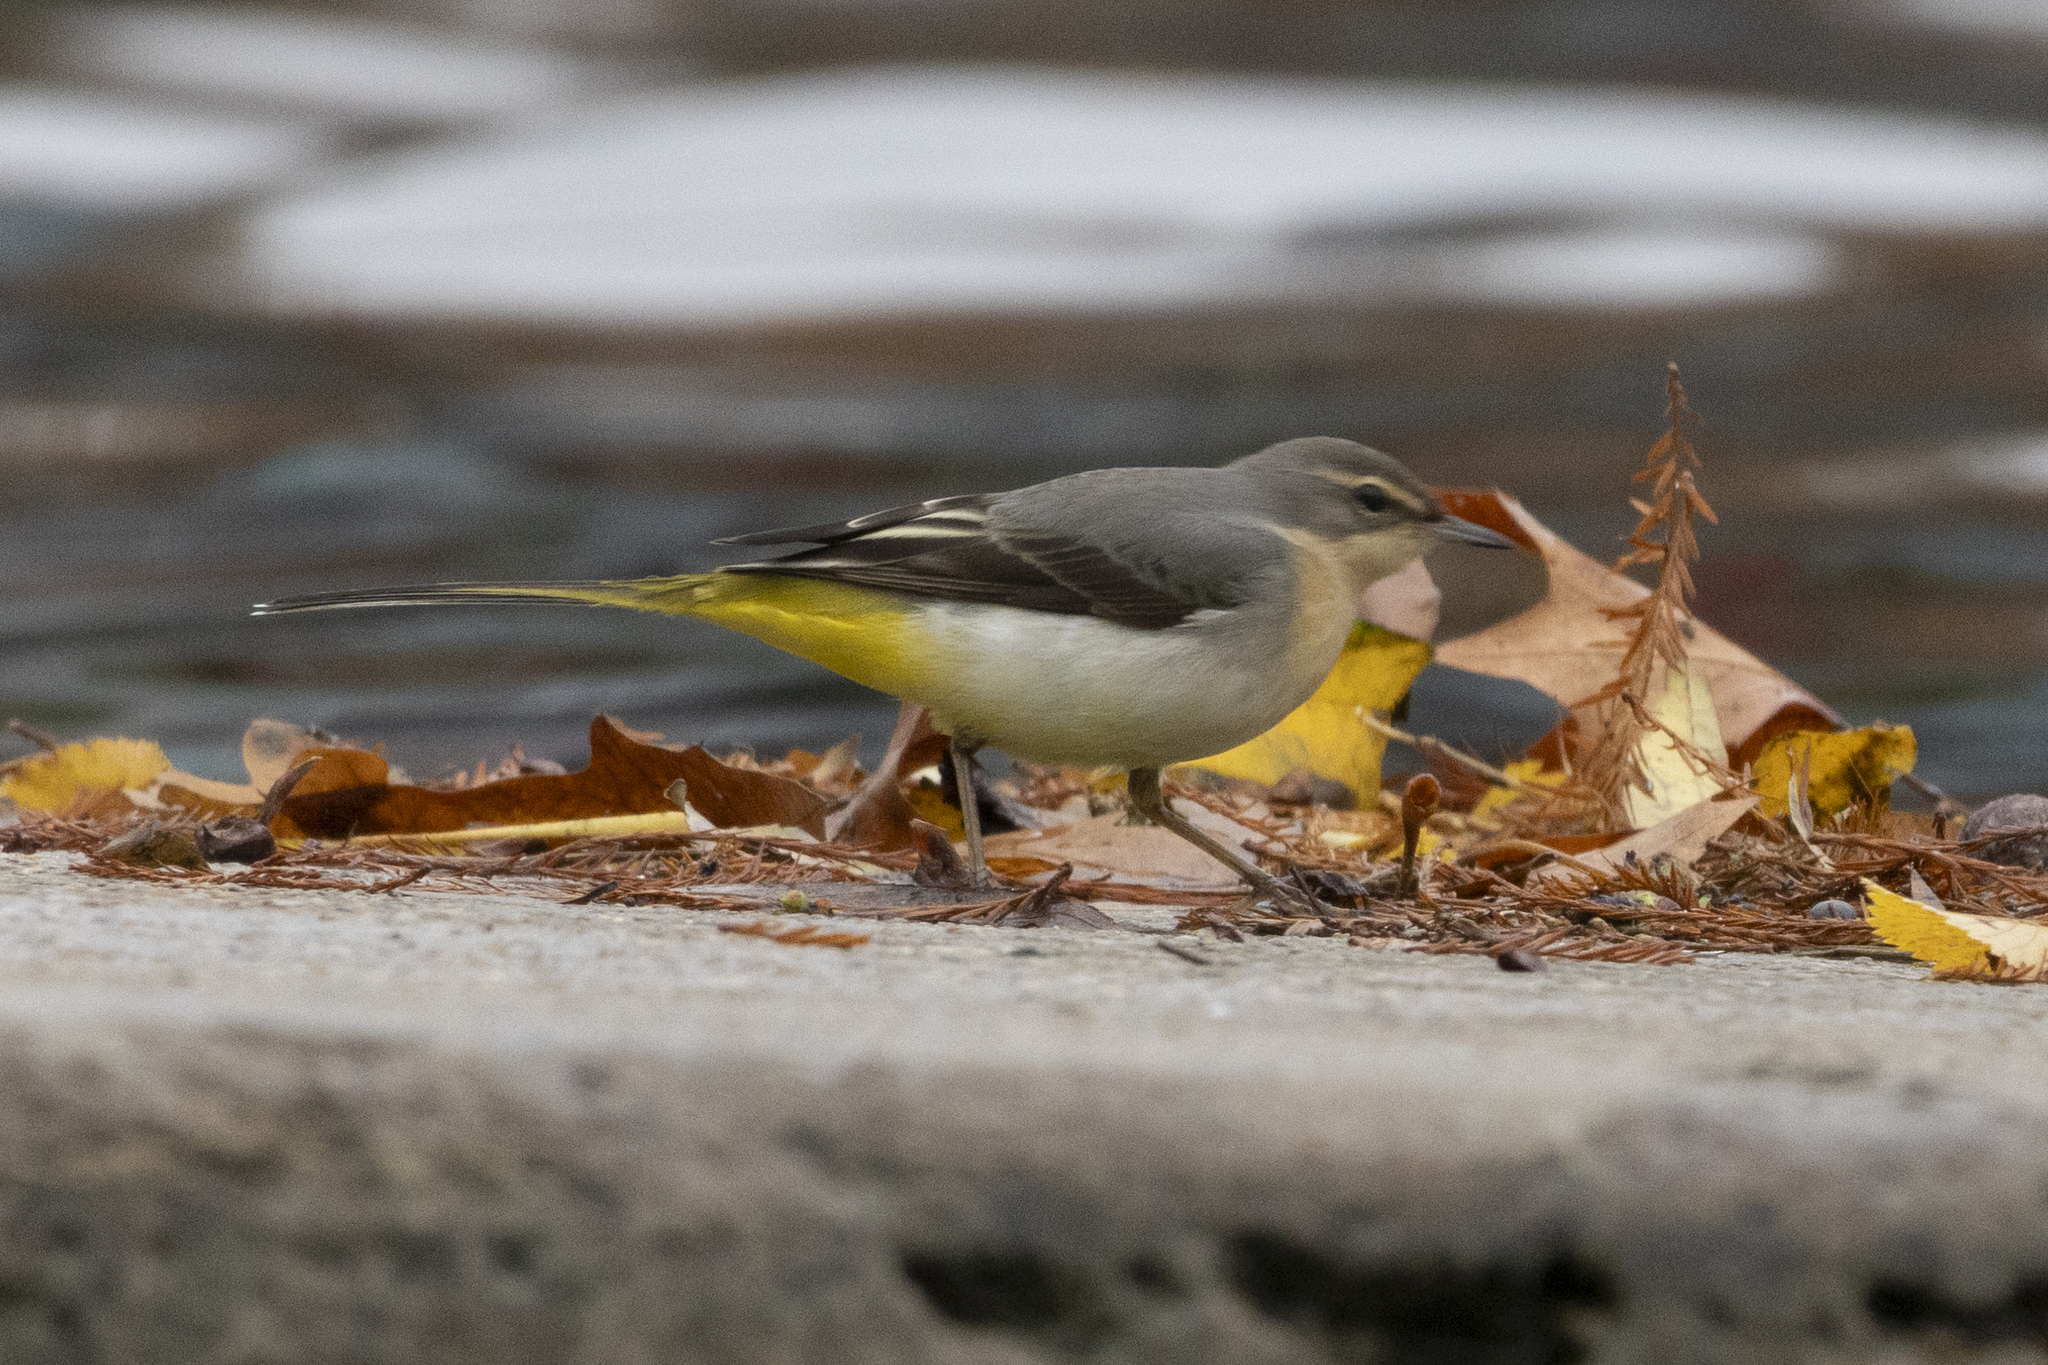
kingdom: Animalia
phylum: Chordata
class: Aves
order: Passeriformes
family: Motacillidae
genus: Motacilla
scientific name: Motacilla cinerea
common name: Grey wagtail
